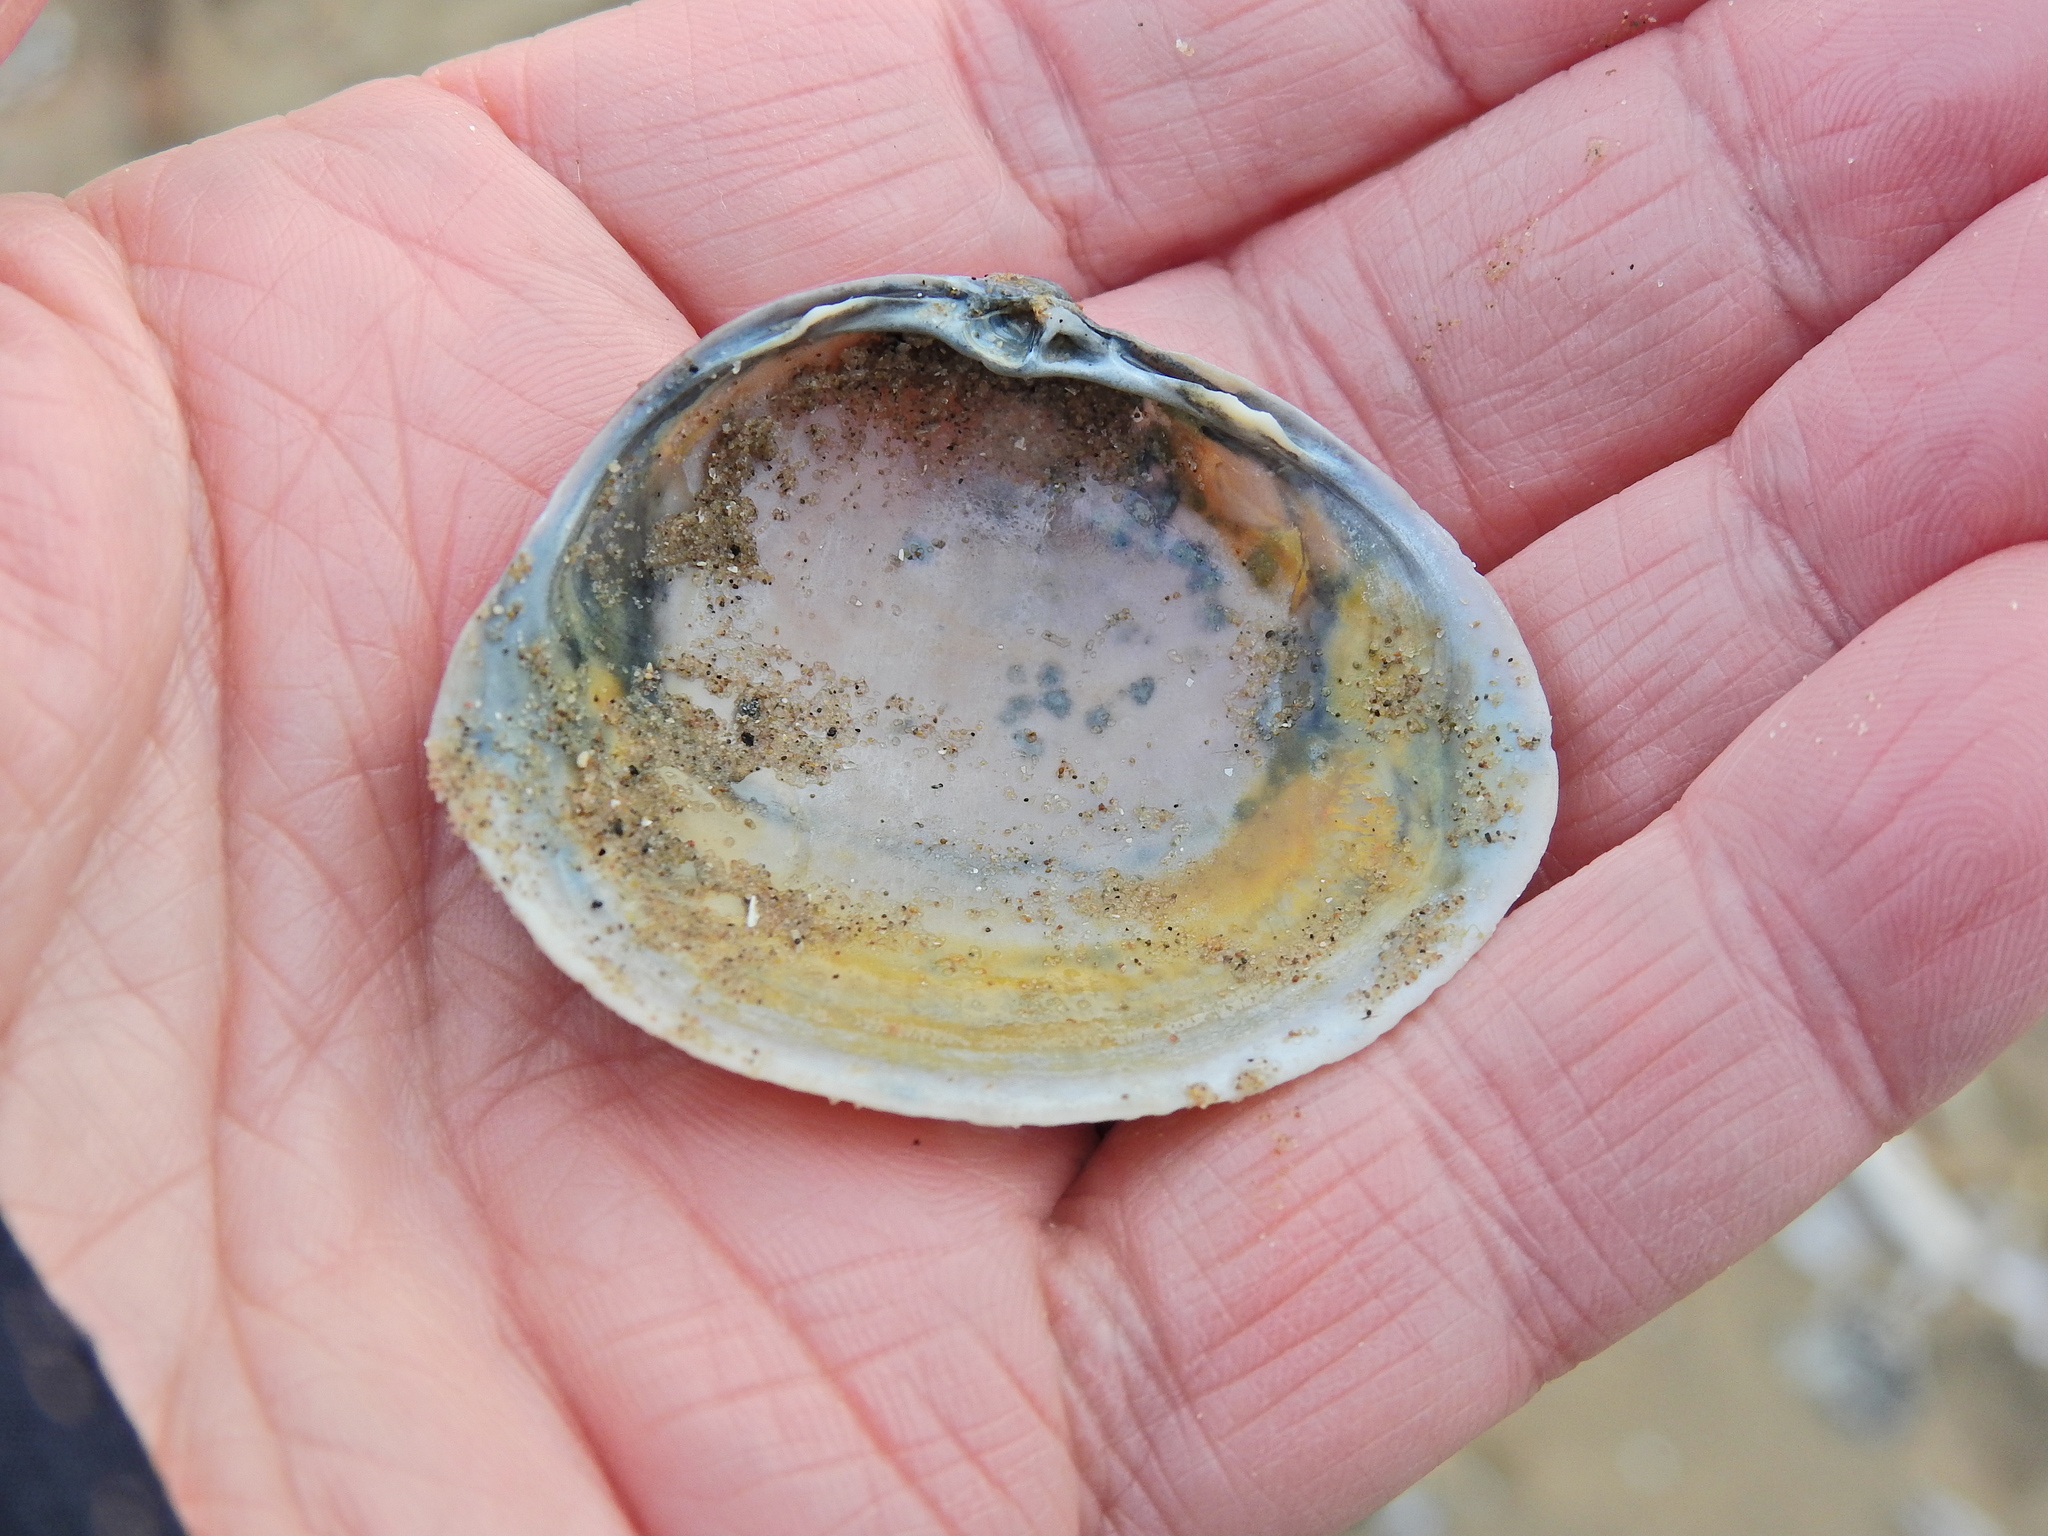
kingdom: Animalia
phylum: Mollusca
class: Bivalvia
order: Venerida
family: Mactridae
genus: Mactra
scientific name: Mactra stultorum
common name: Rayed trough shell
